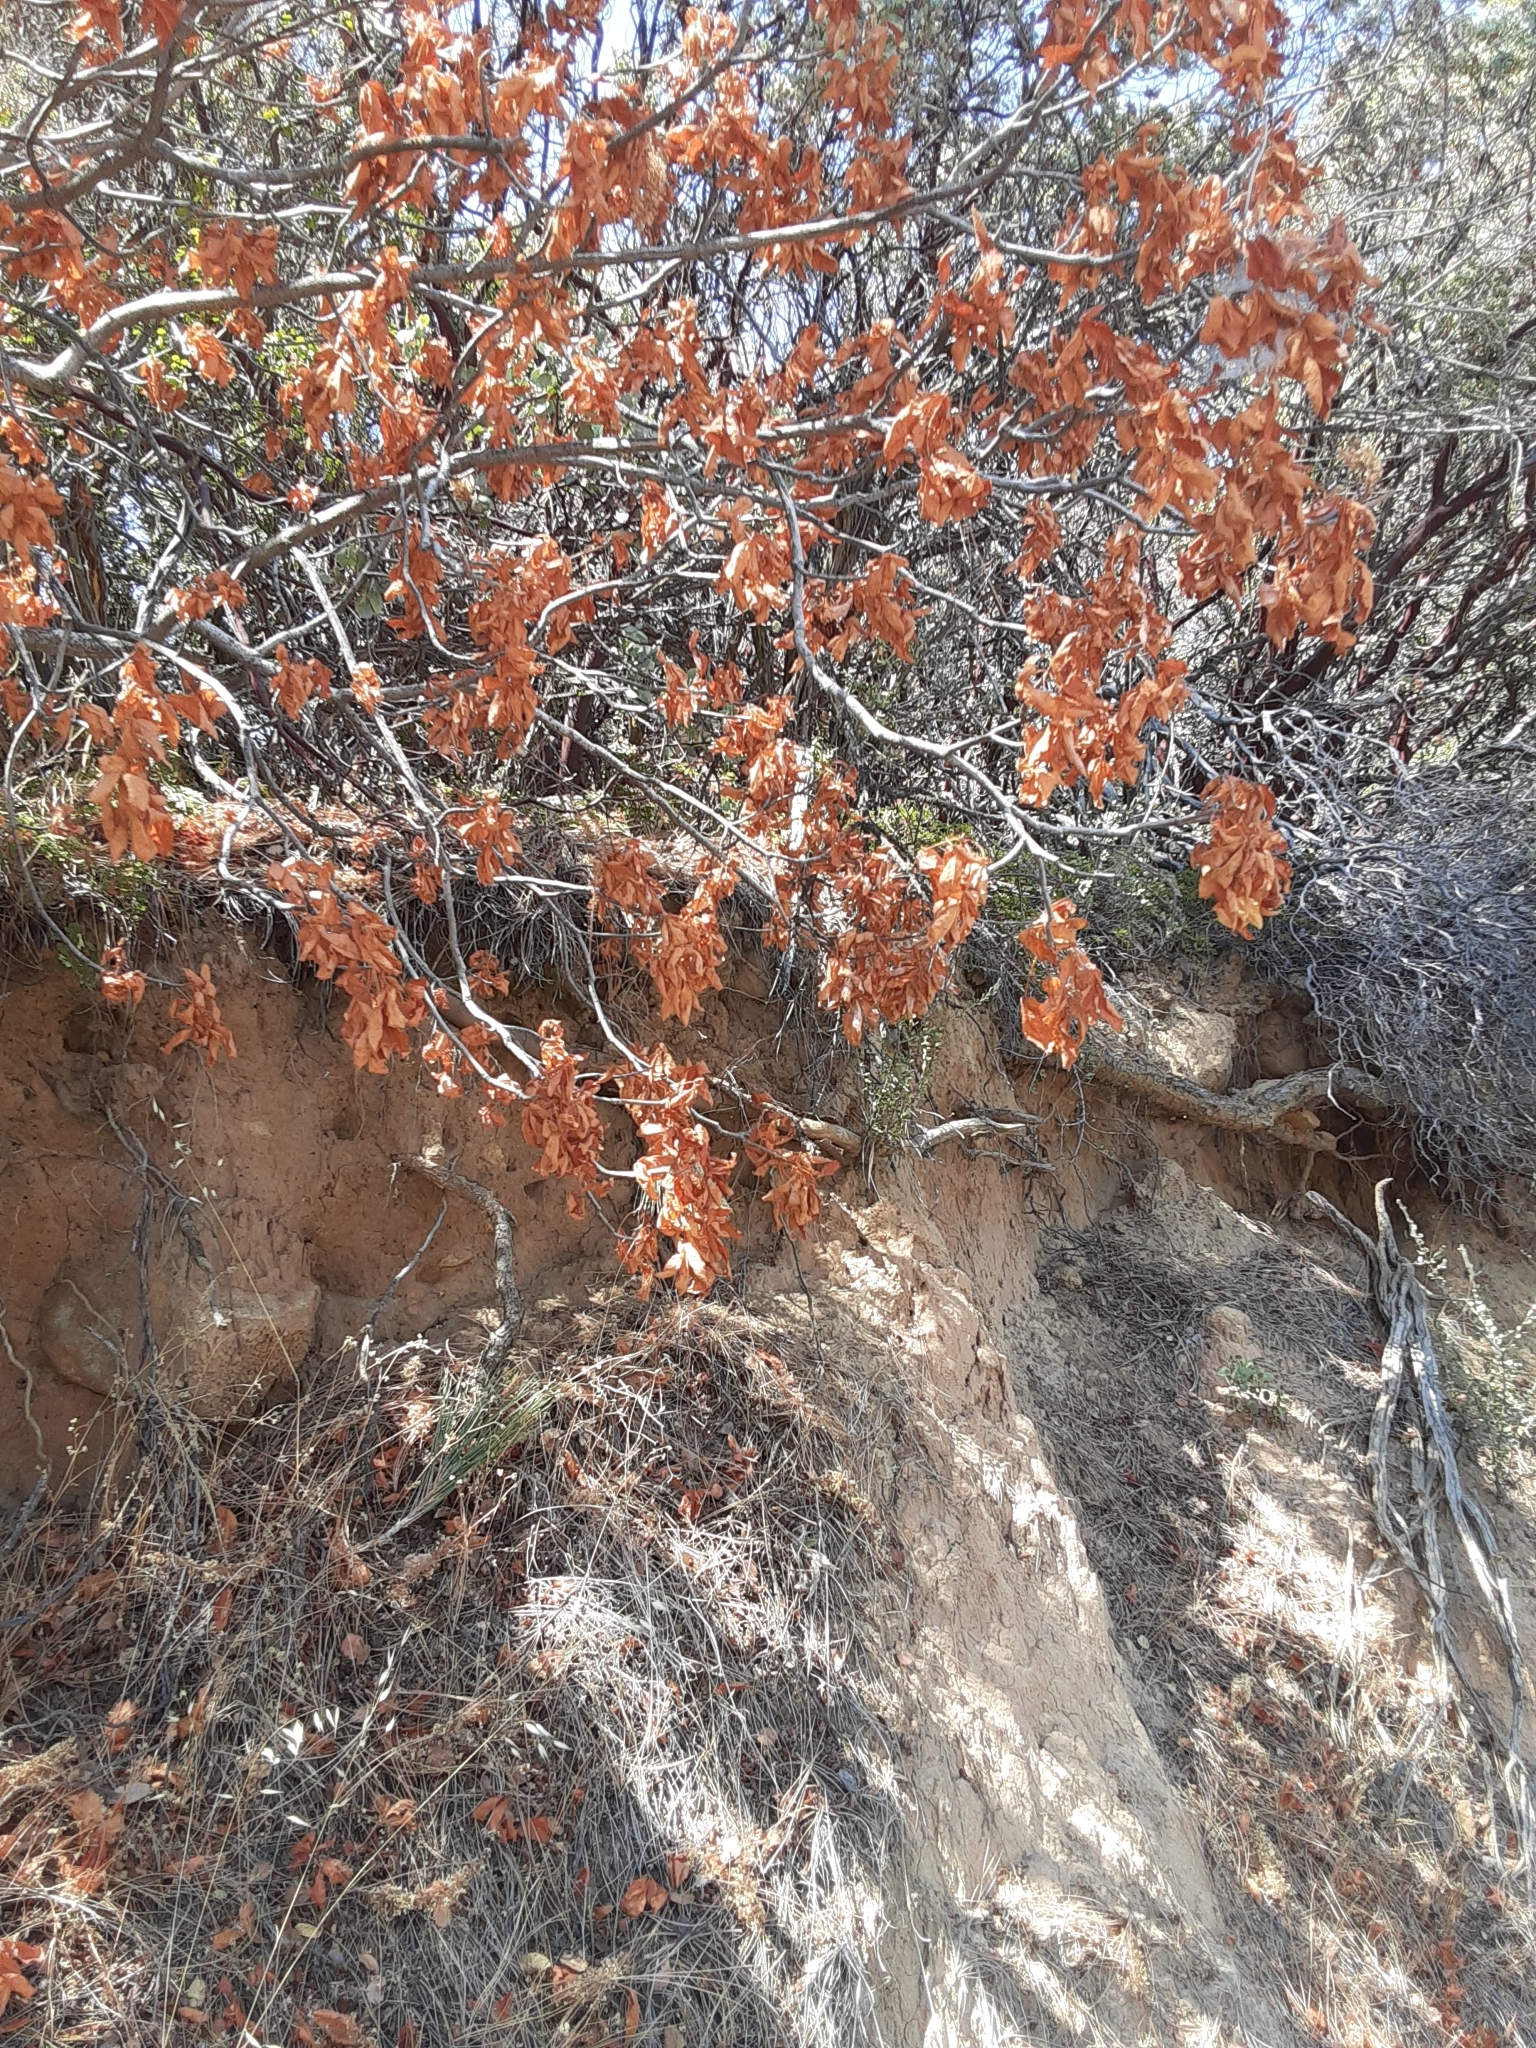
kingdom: Plantae
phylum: Tracheophyta
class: Magnoliopsida
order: Sapindales
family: Sapindaceae
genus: Aesculus
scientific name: Aesculus californica
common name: California buckeye
